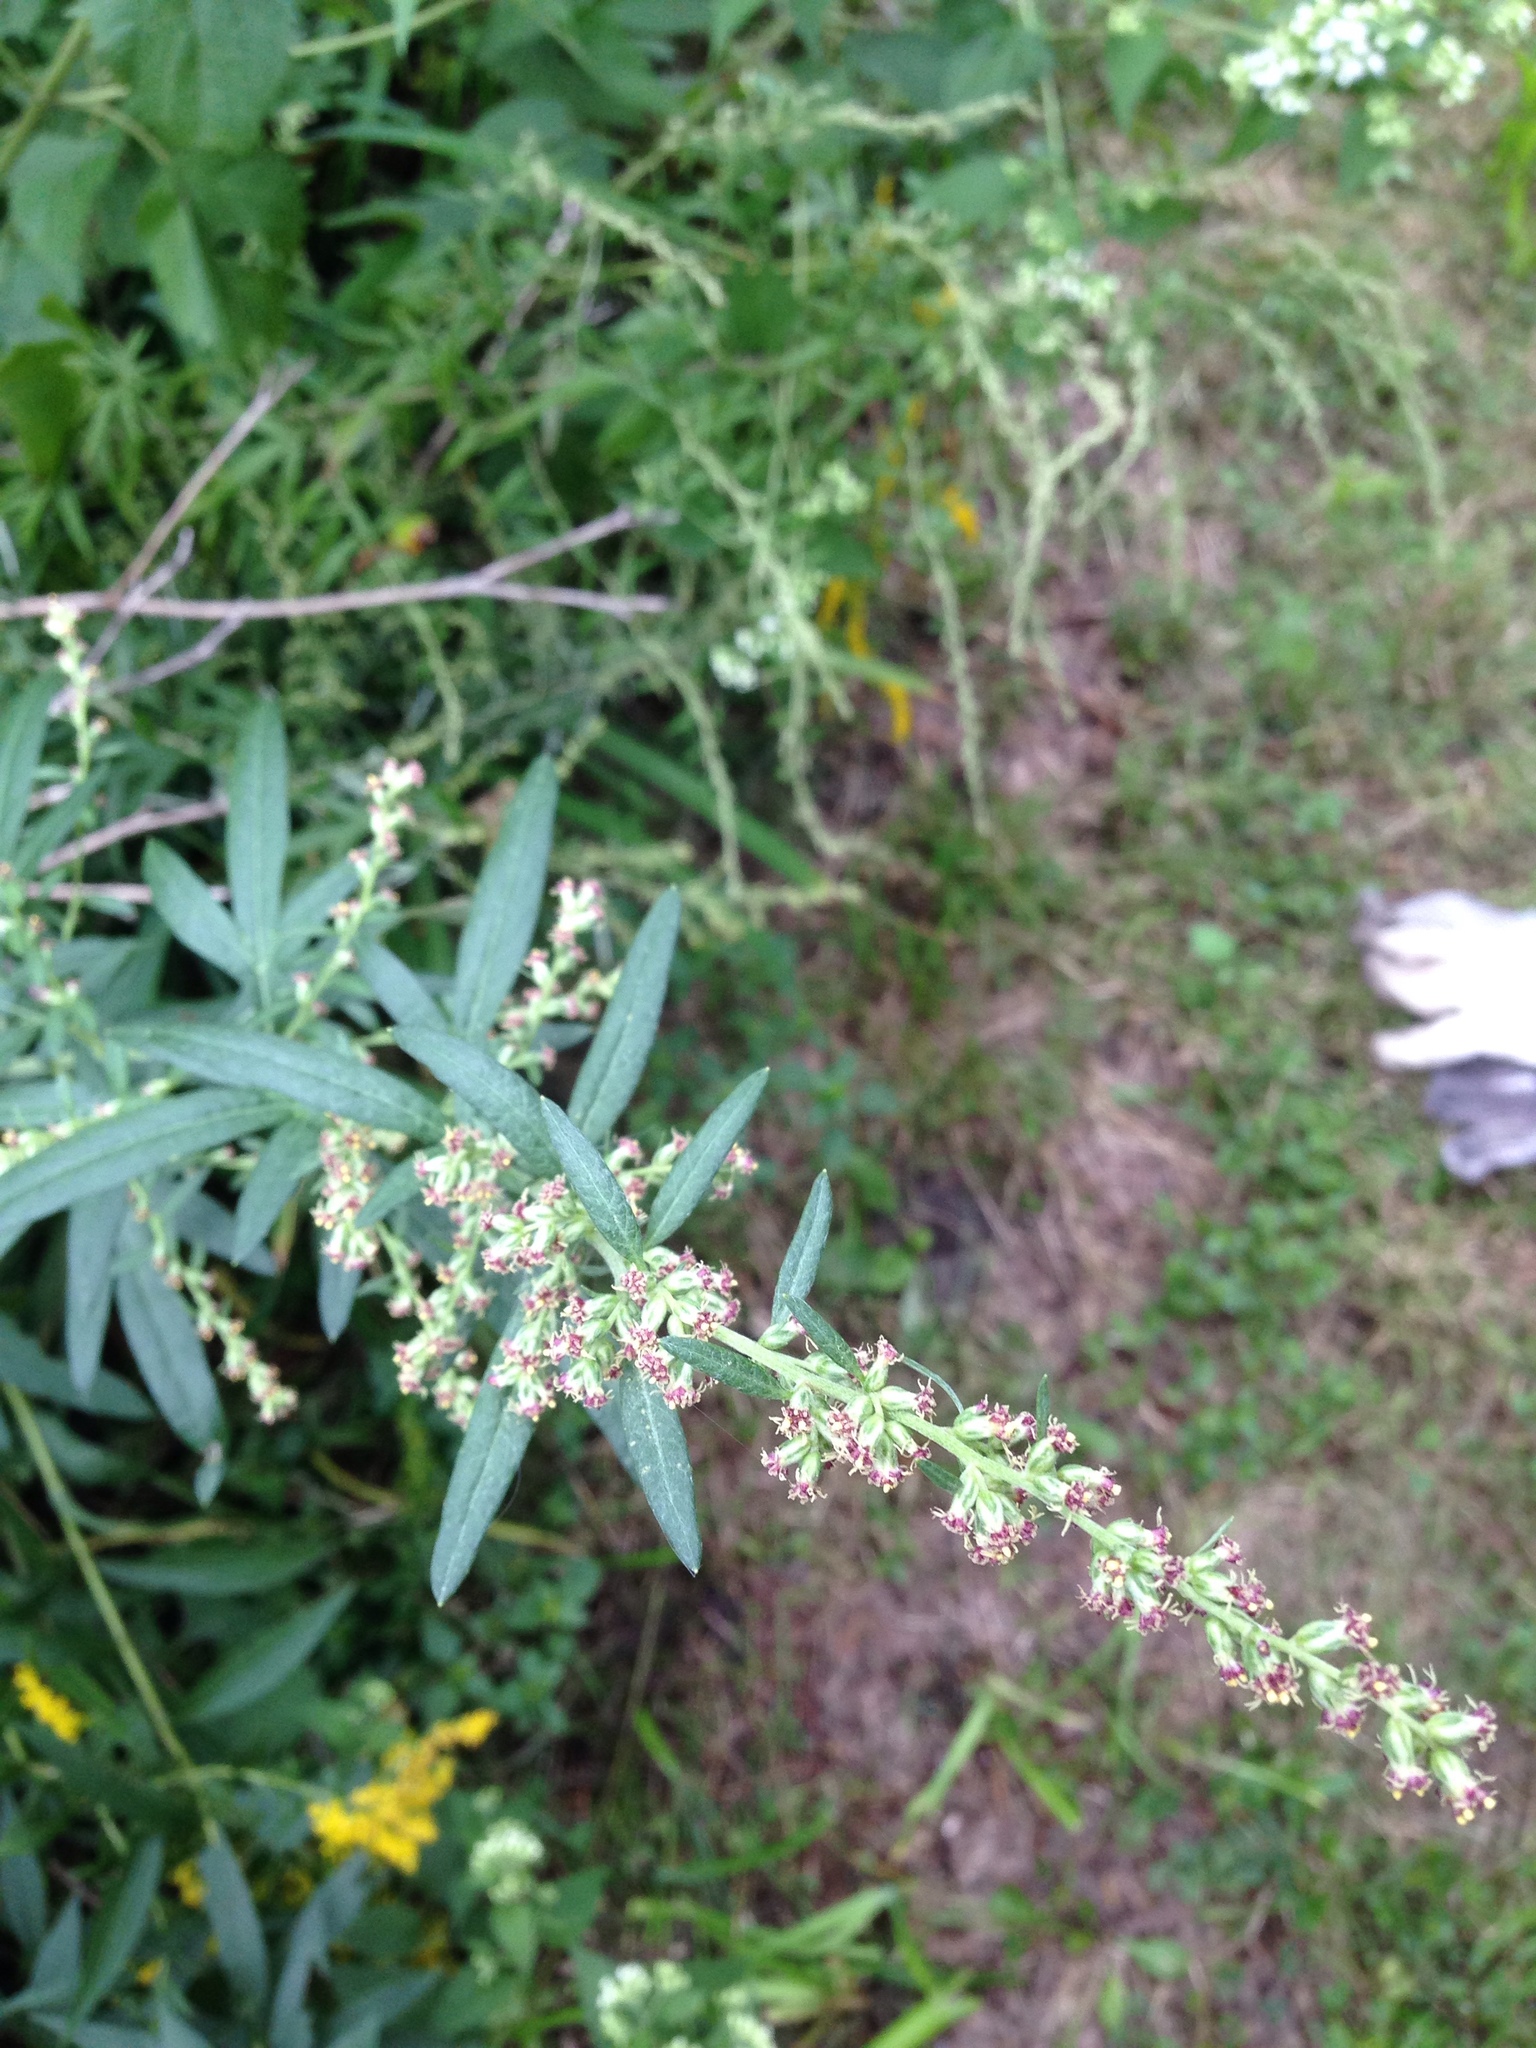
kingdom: Plantae
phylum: Tracheophyta
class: Magnoliopsida
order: Asterales
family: Asteraceae
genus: Artemisia
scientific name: Artemisia vulgaris
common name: Mugwort
